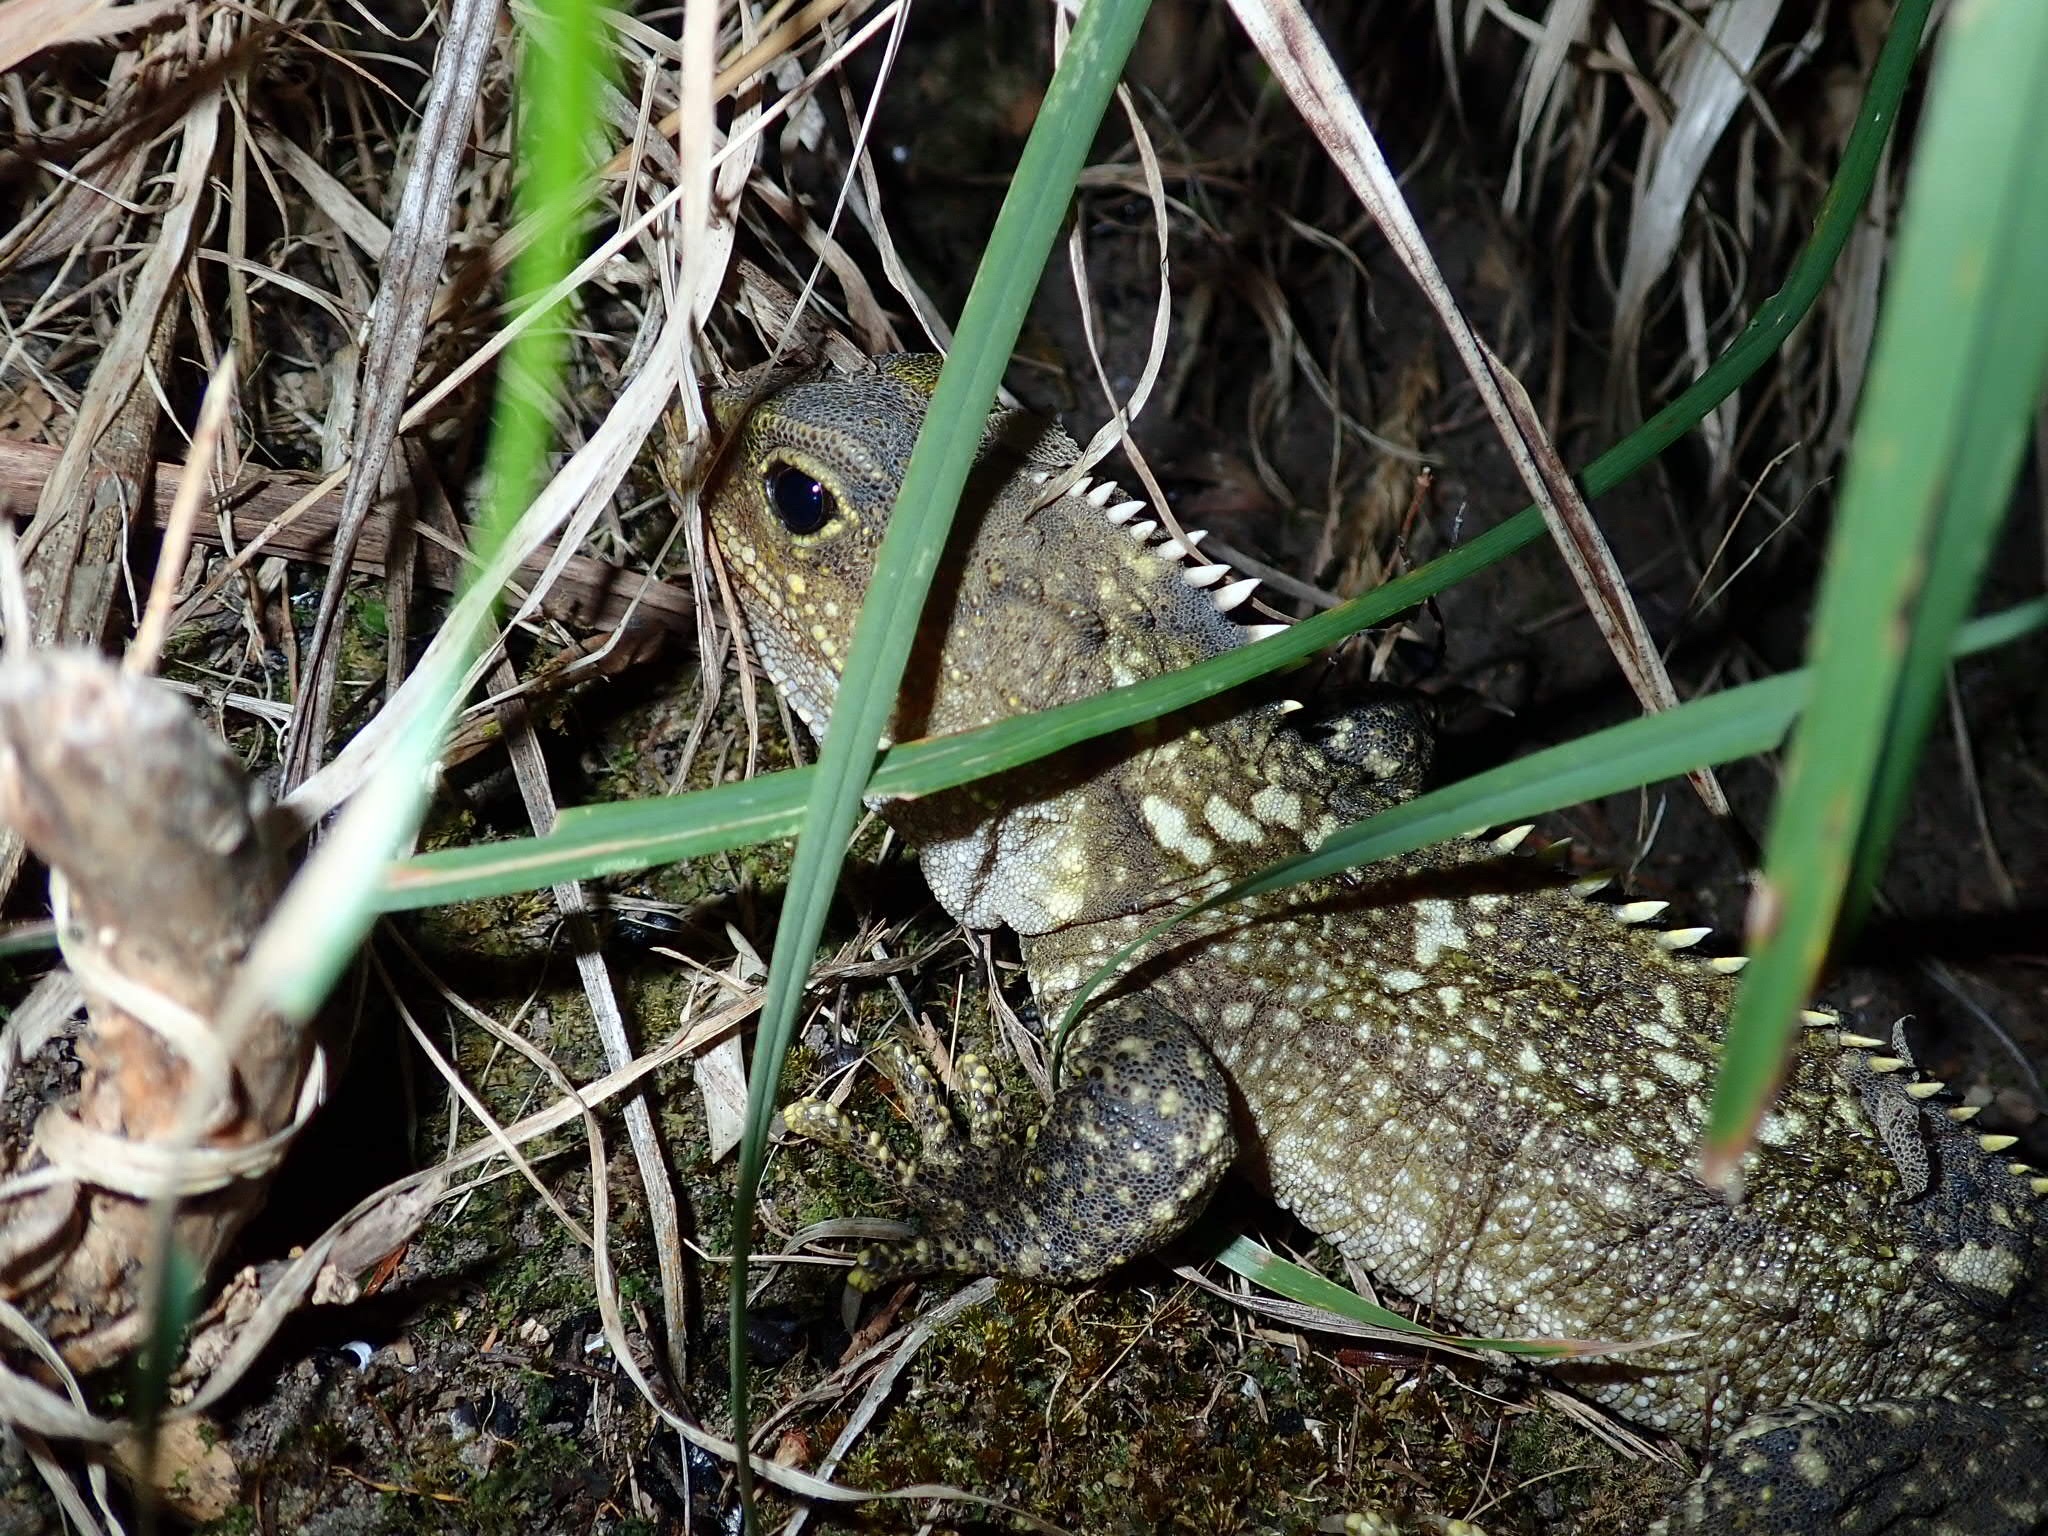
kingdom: Animalia
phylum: Chordata
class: Sphenodontia
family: Sphenodontidae
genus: Sphenodon
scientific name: Sphenodon punctatus
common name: Tuatara
